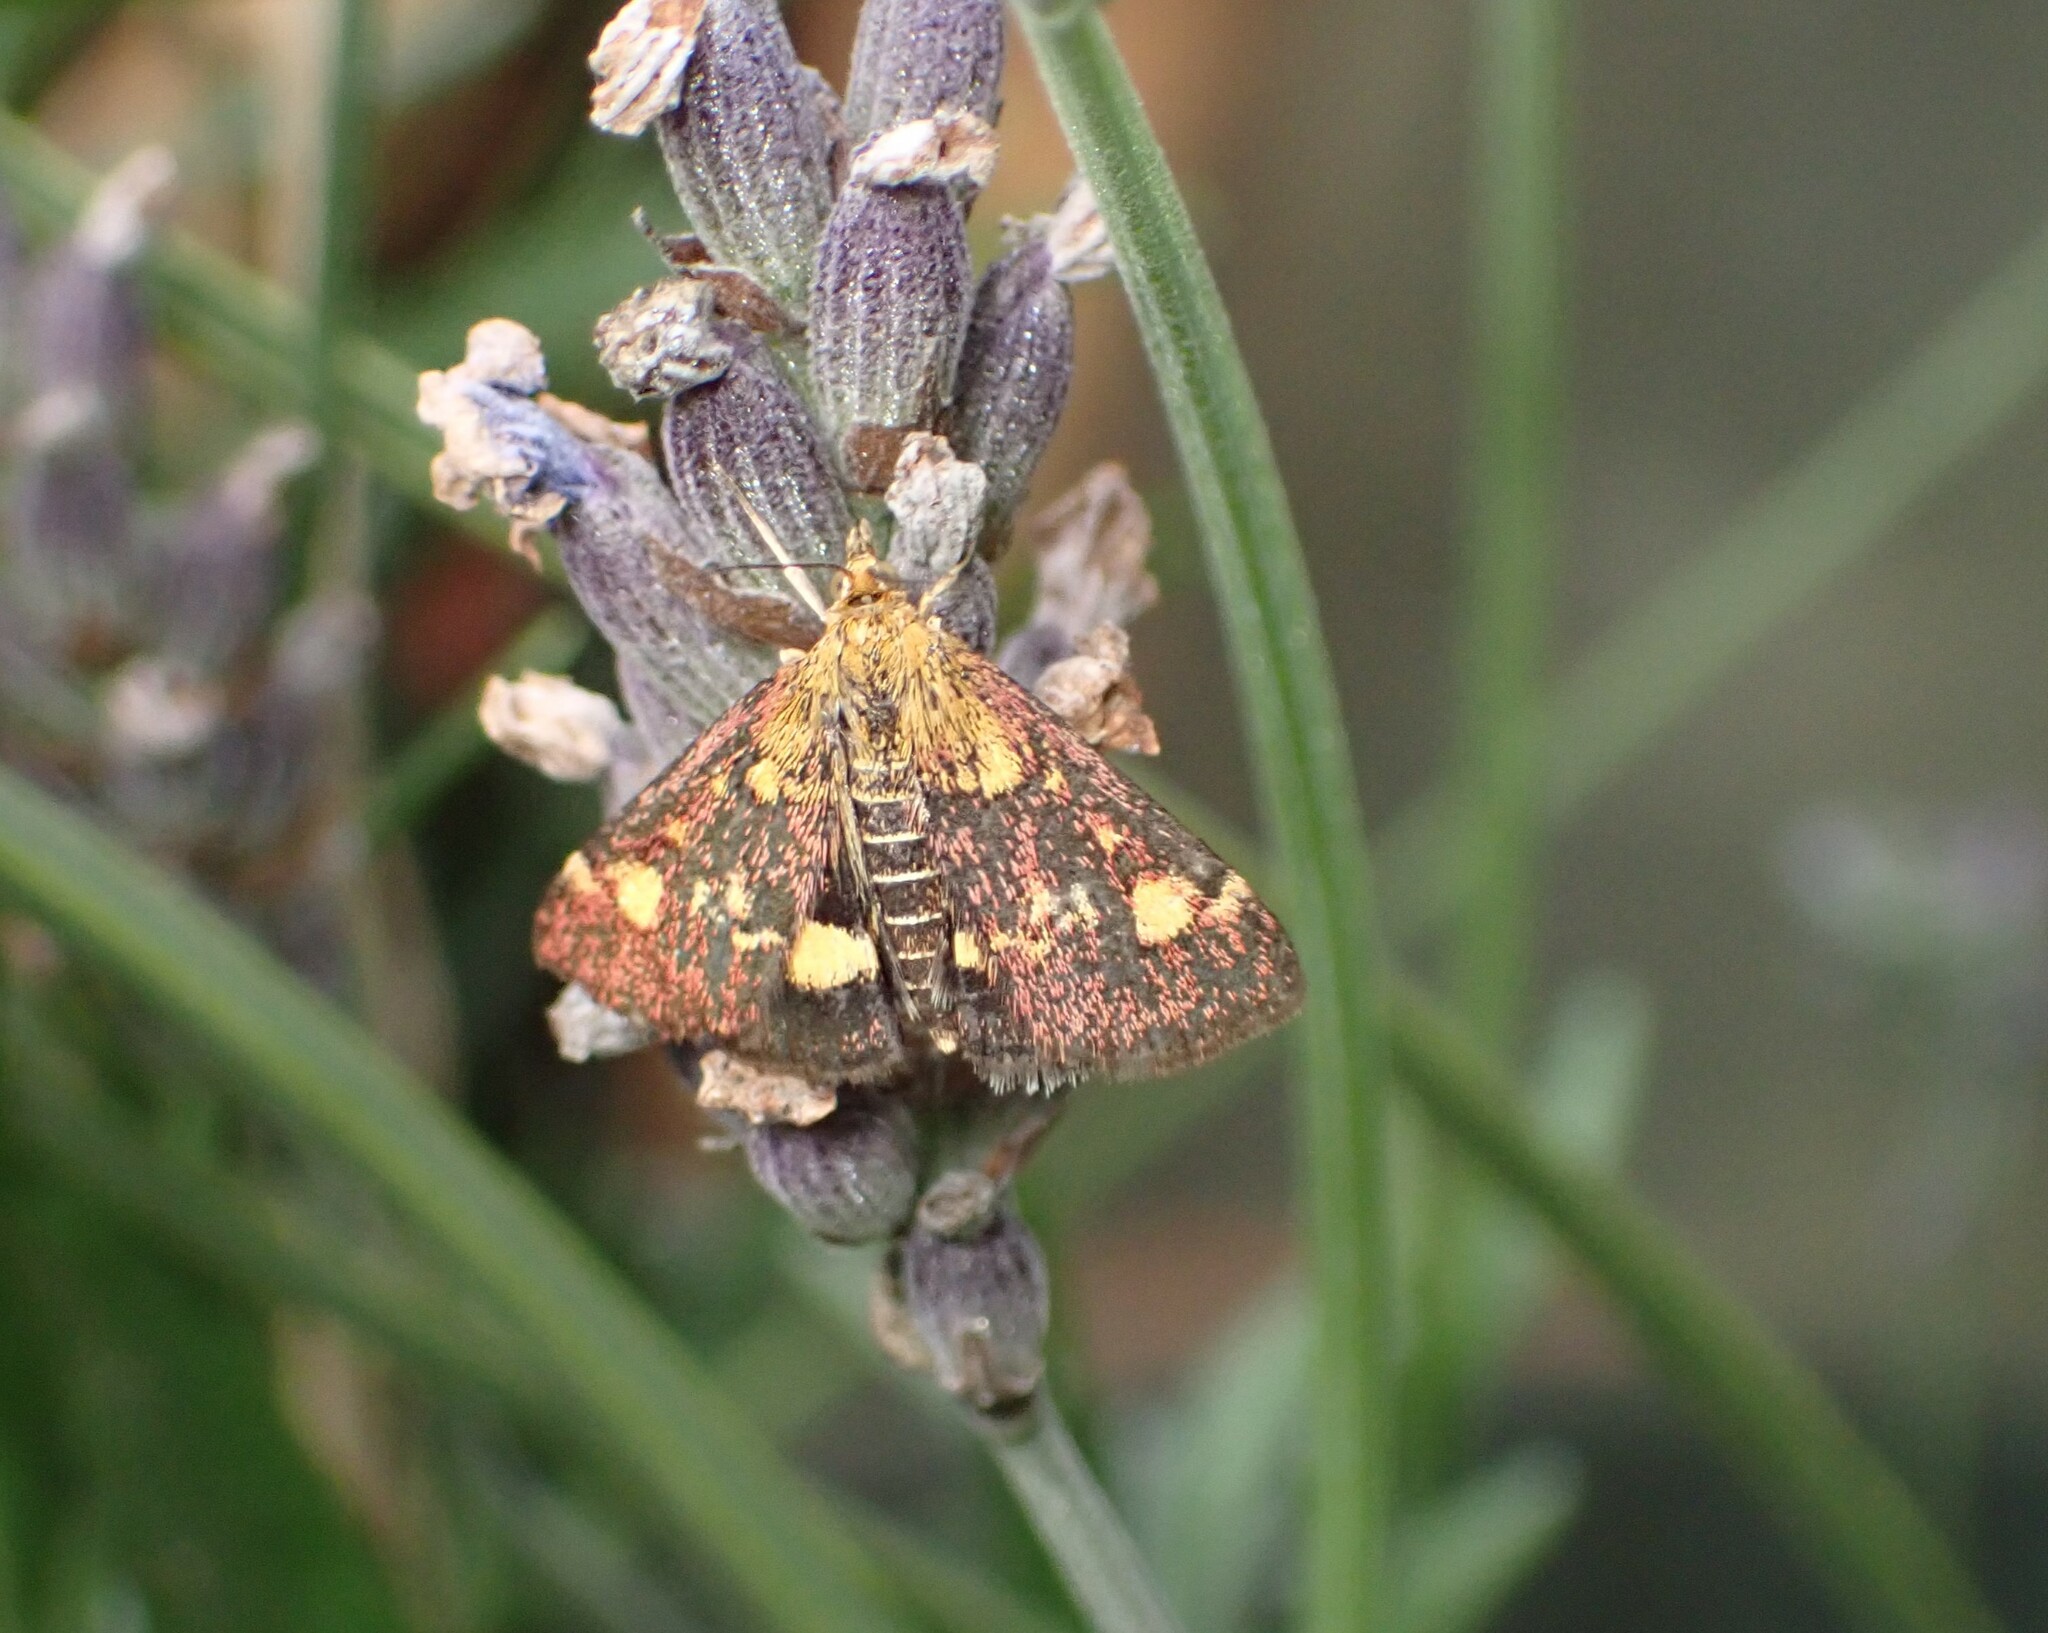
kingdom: Animalia
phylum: Arthropoda
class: Insecta
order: Lepidoptera
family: Crambidae
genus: Pyrausta
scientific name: Pyrausta aurata
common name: Small purple & gold
